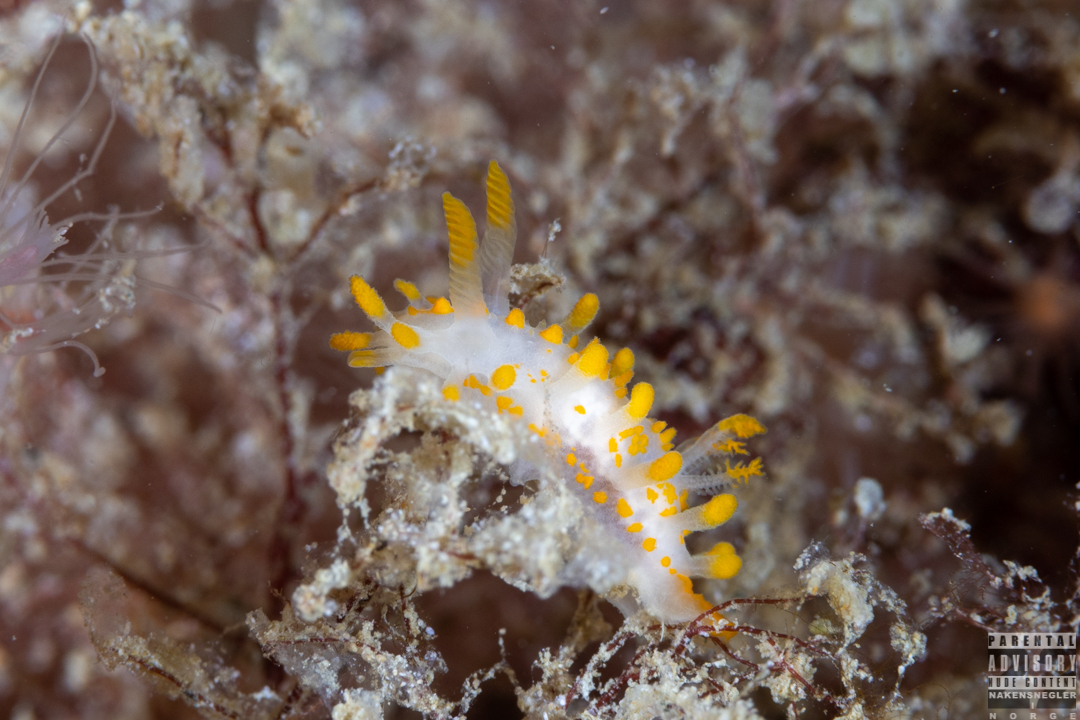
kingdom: Animalia
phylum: Mollusca
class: Gastropoda
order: Nudibranchia
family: Polyceridae
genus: Limacia
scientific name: Limacia clavigera
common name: Orange-clubbed sea slug
